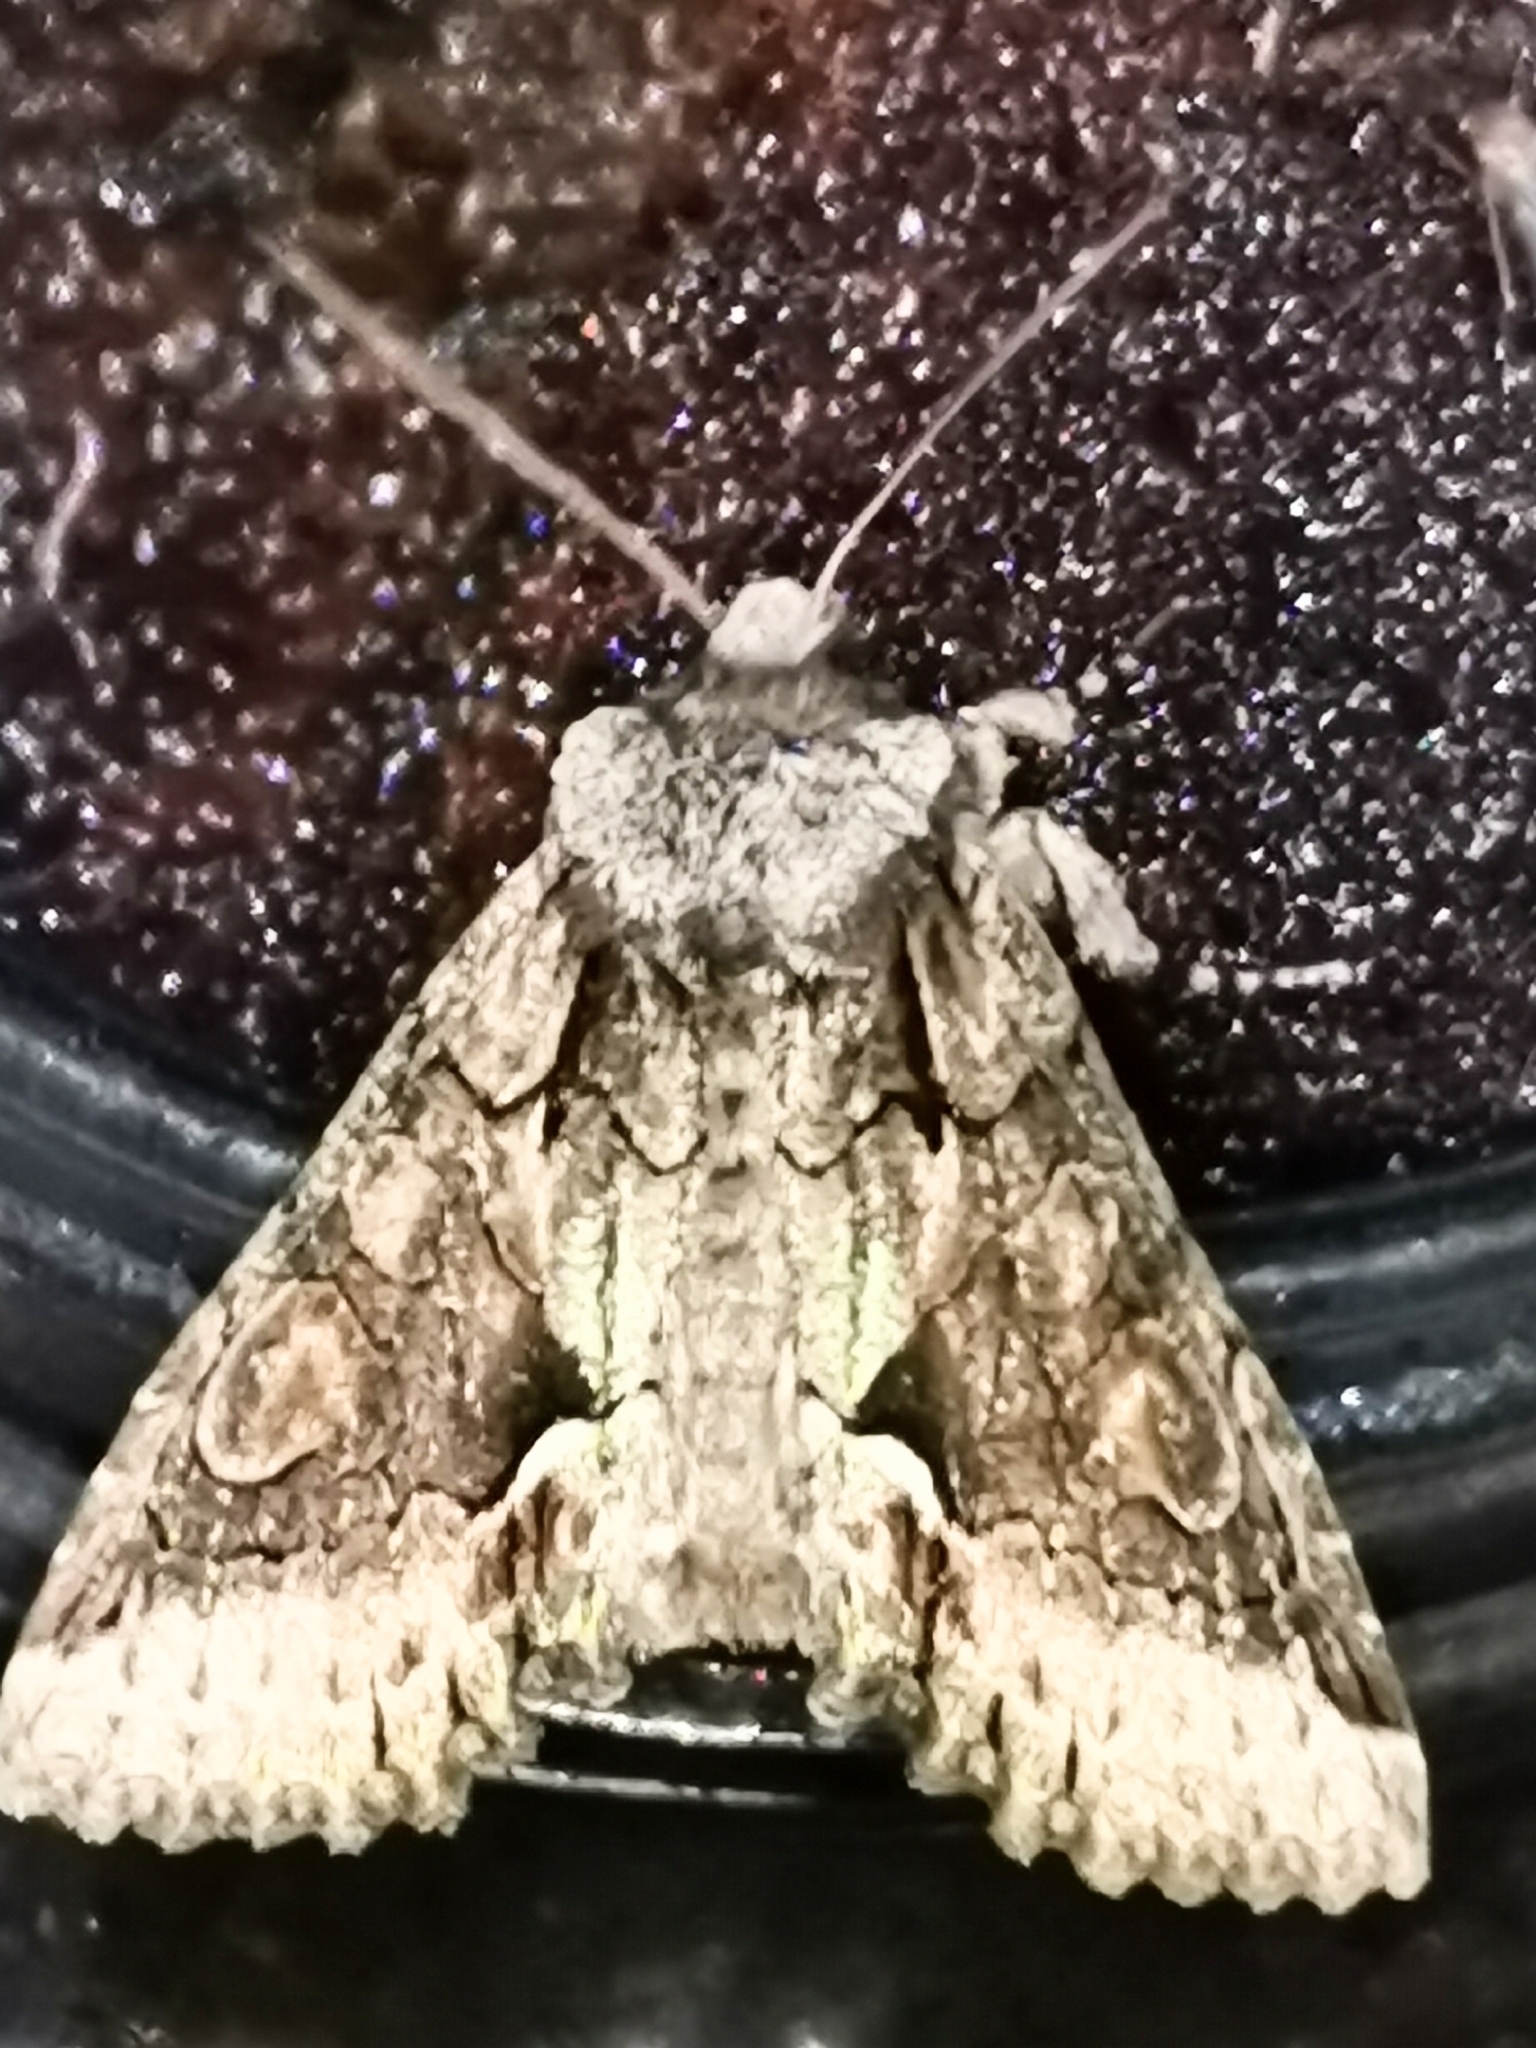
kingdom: Animalia
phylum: Arthropoda
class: Insecta
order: Lepidoptera
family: Noctuidae
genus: Allophyes
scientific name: Allophyes oxyacanthae
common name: Green-brindled crescent
